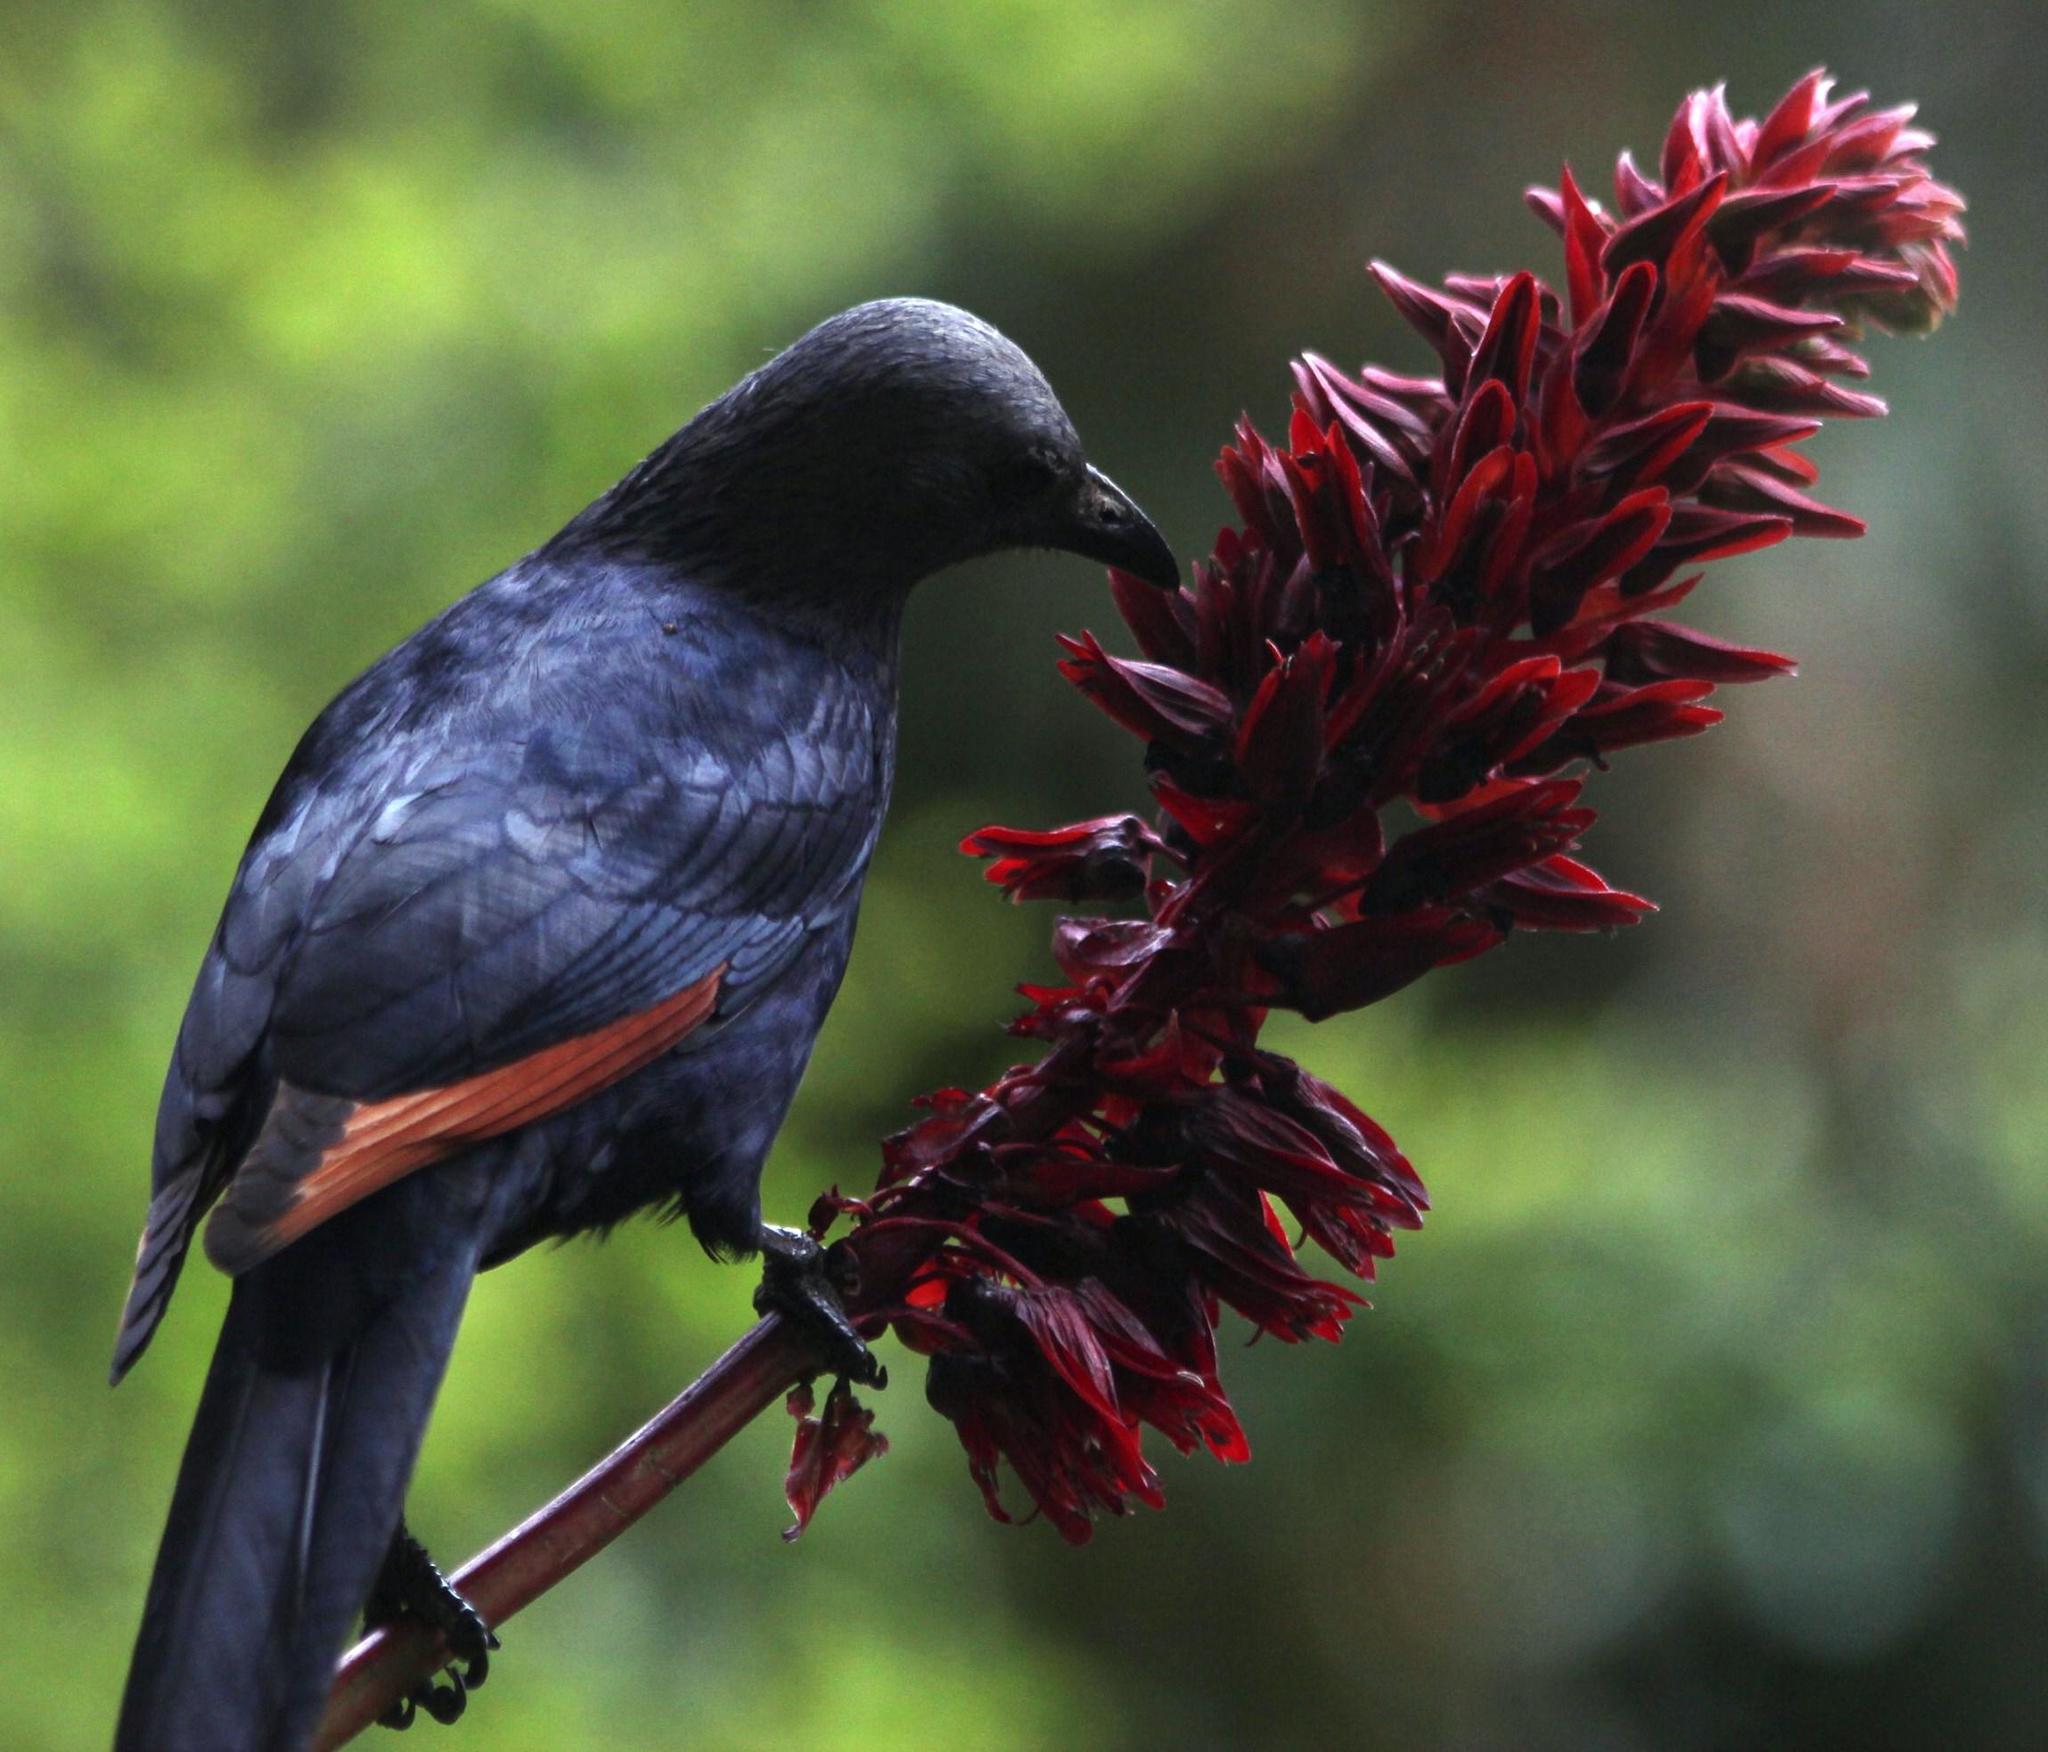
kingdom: Animalia
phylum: Chordata
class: Aves
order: Passeriformes
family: Sturnidae
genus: Onychognathus
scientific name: Onychognathus morio
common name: Red-winged starling
